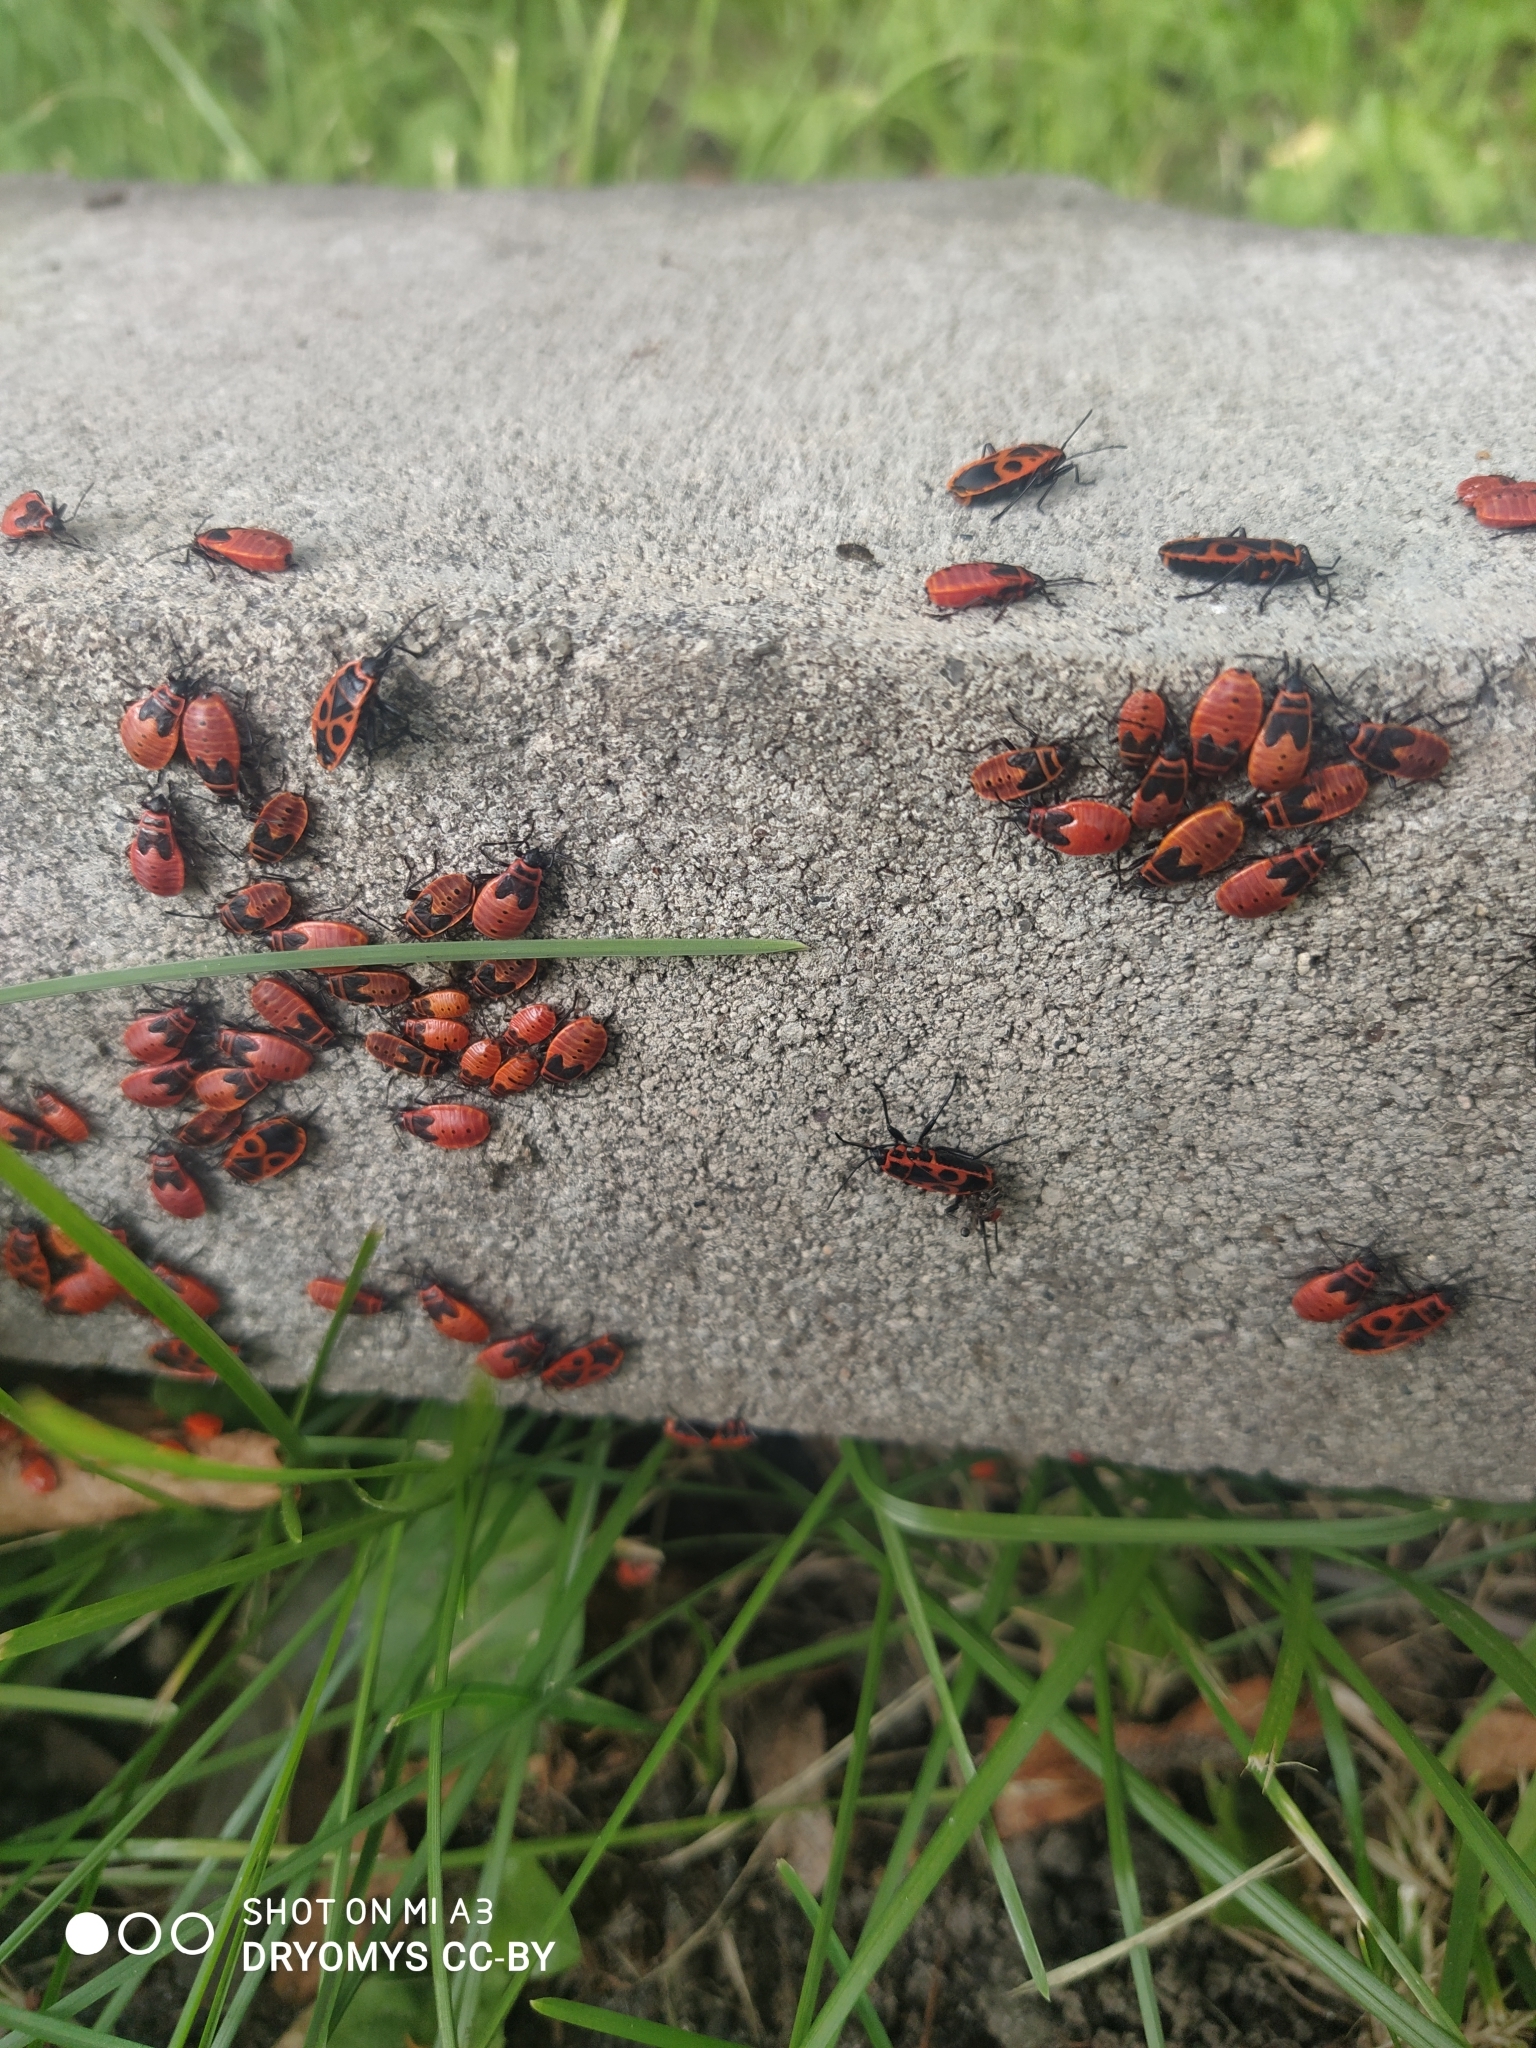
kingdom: Animalia
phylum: Arthropoda
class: Insecta
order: Hemiptera
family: Pyrrhocoridae
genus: Pyrrhocoris
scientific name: Pyrrhocoris apterus
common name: Firebug
